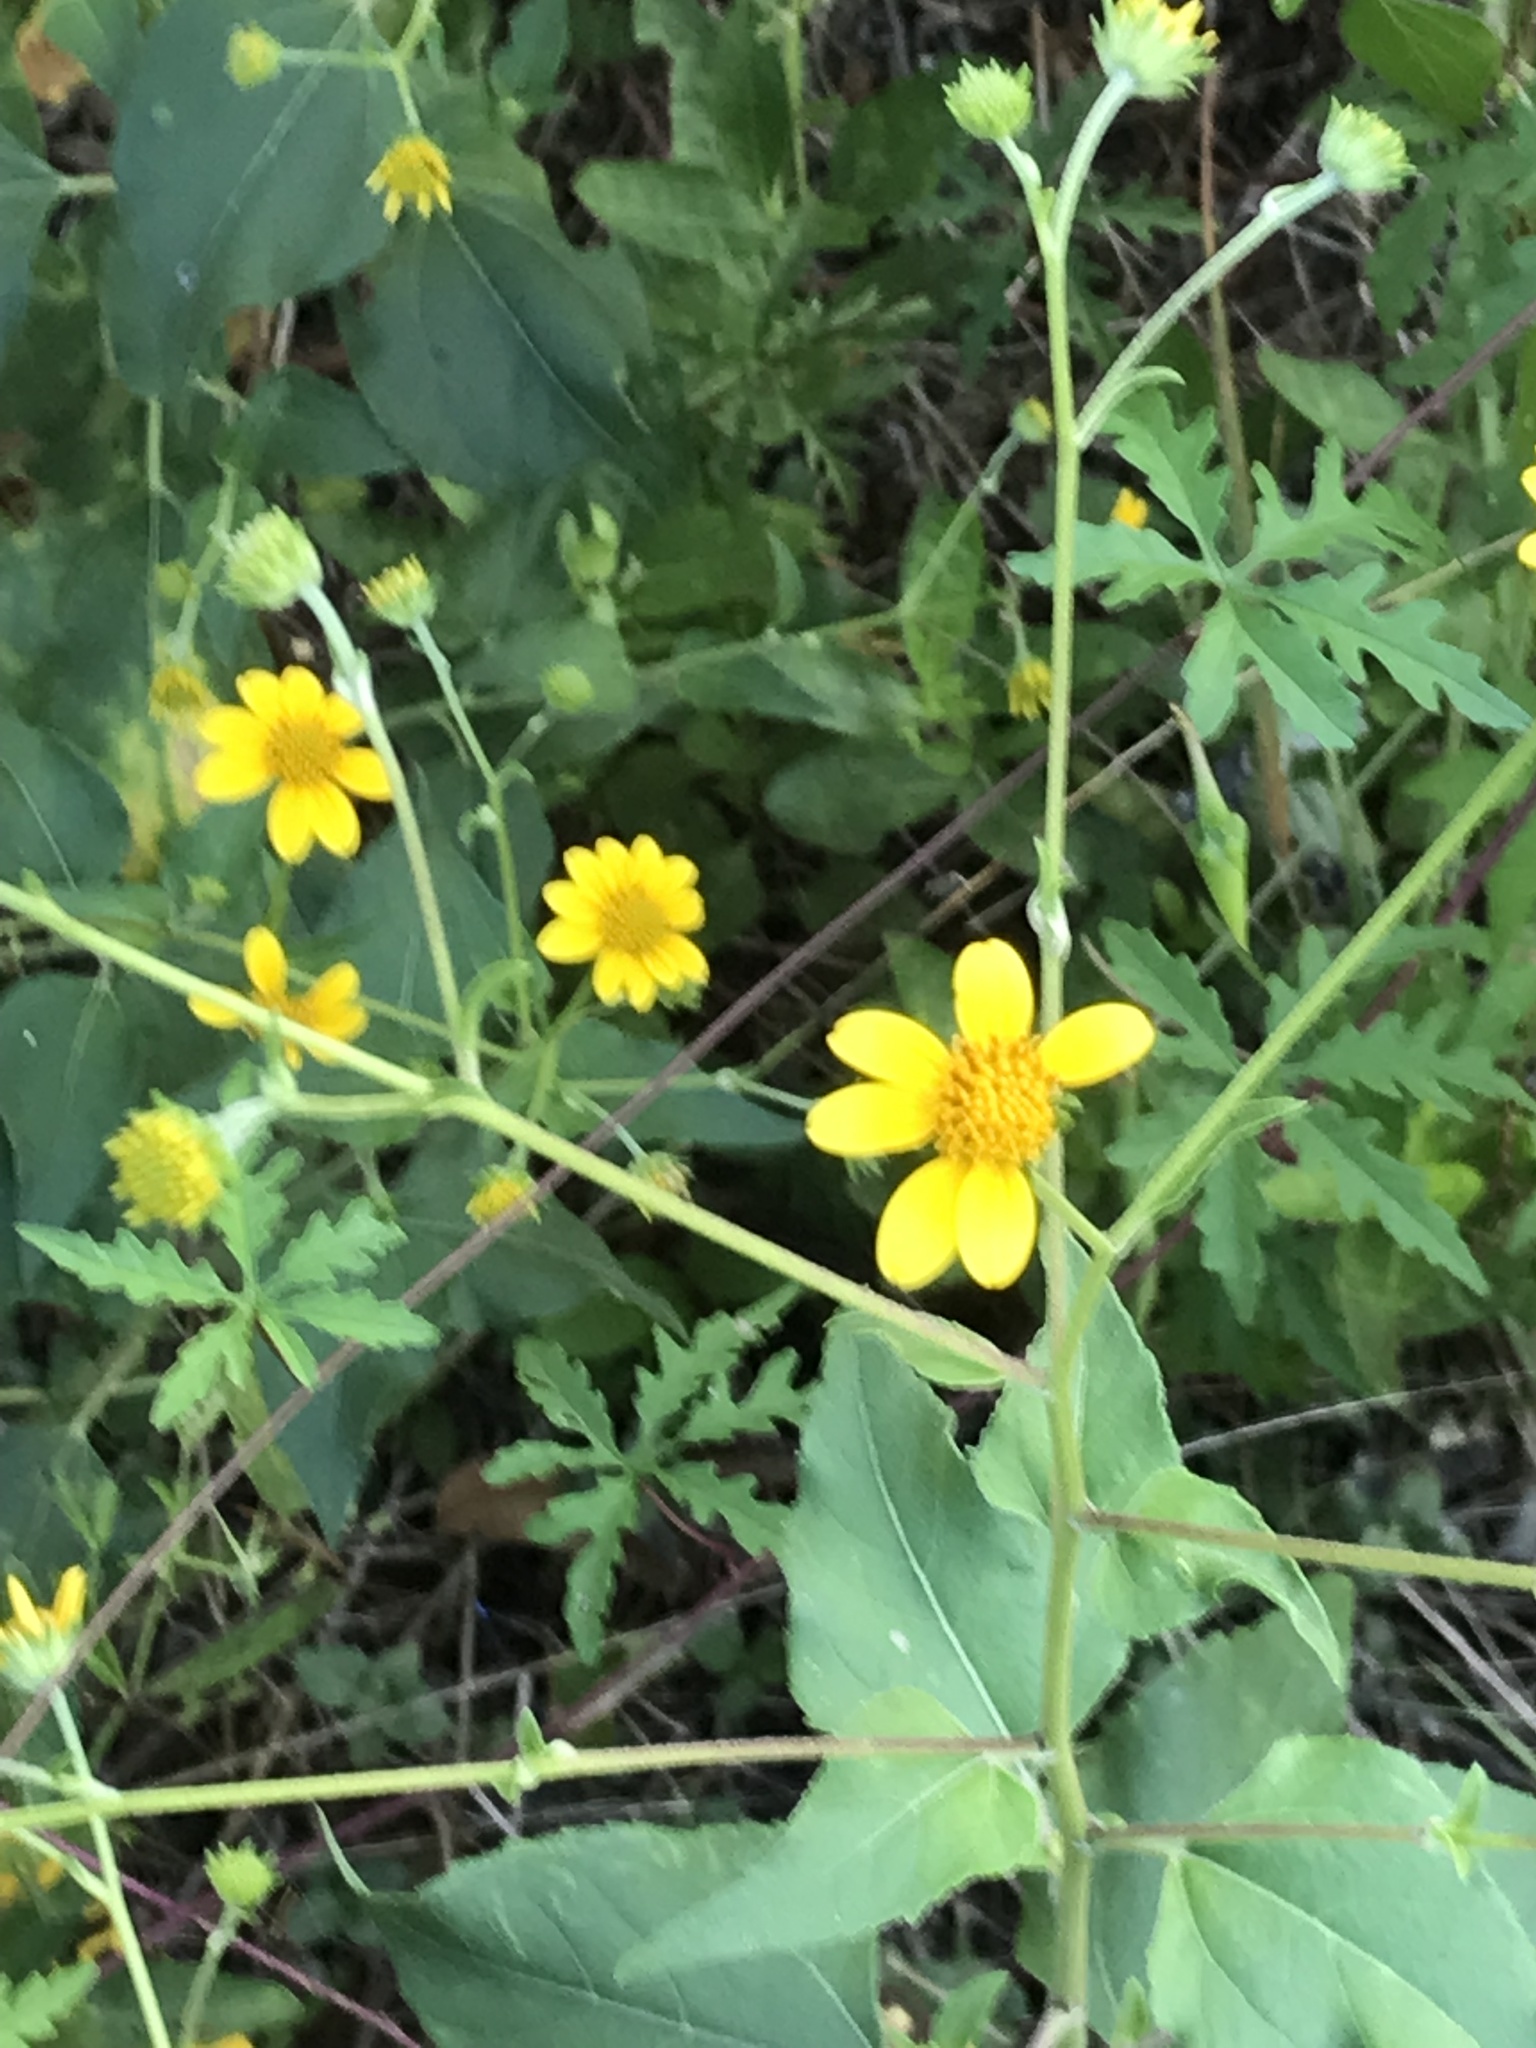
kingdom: Plantae
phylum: Tracheophyta
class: Magnoliopsida
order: Asterales
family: Asteraceae
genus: Viguiera
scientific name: Viguiera dentata
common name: Toothleaf
